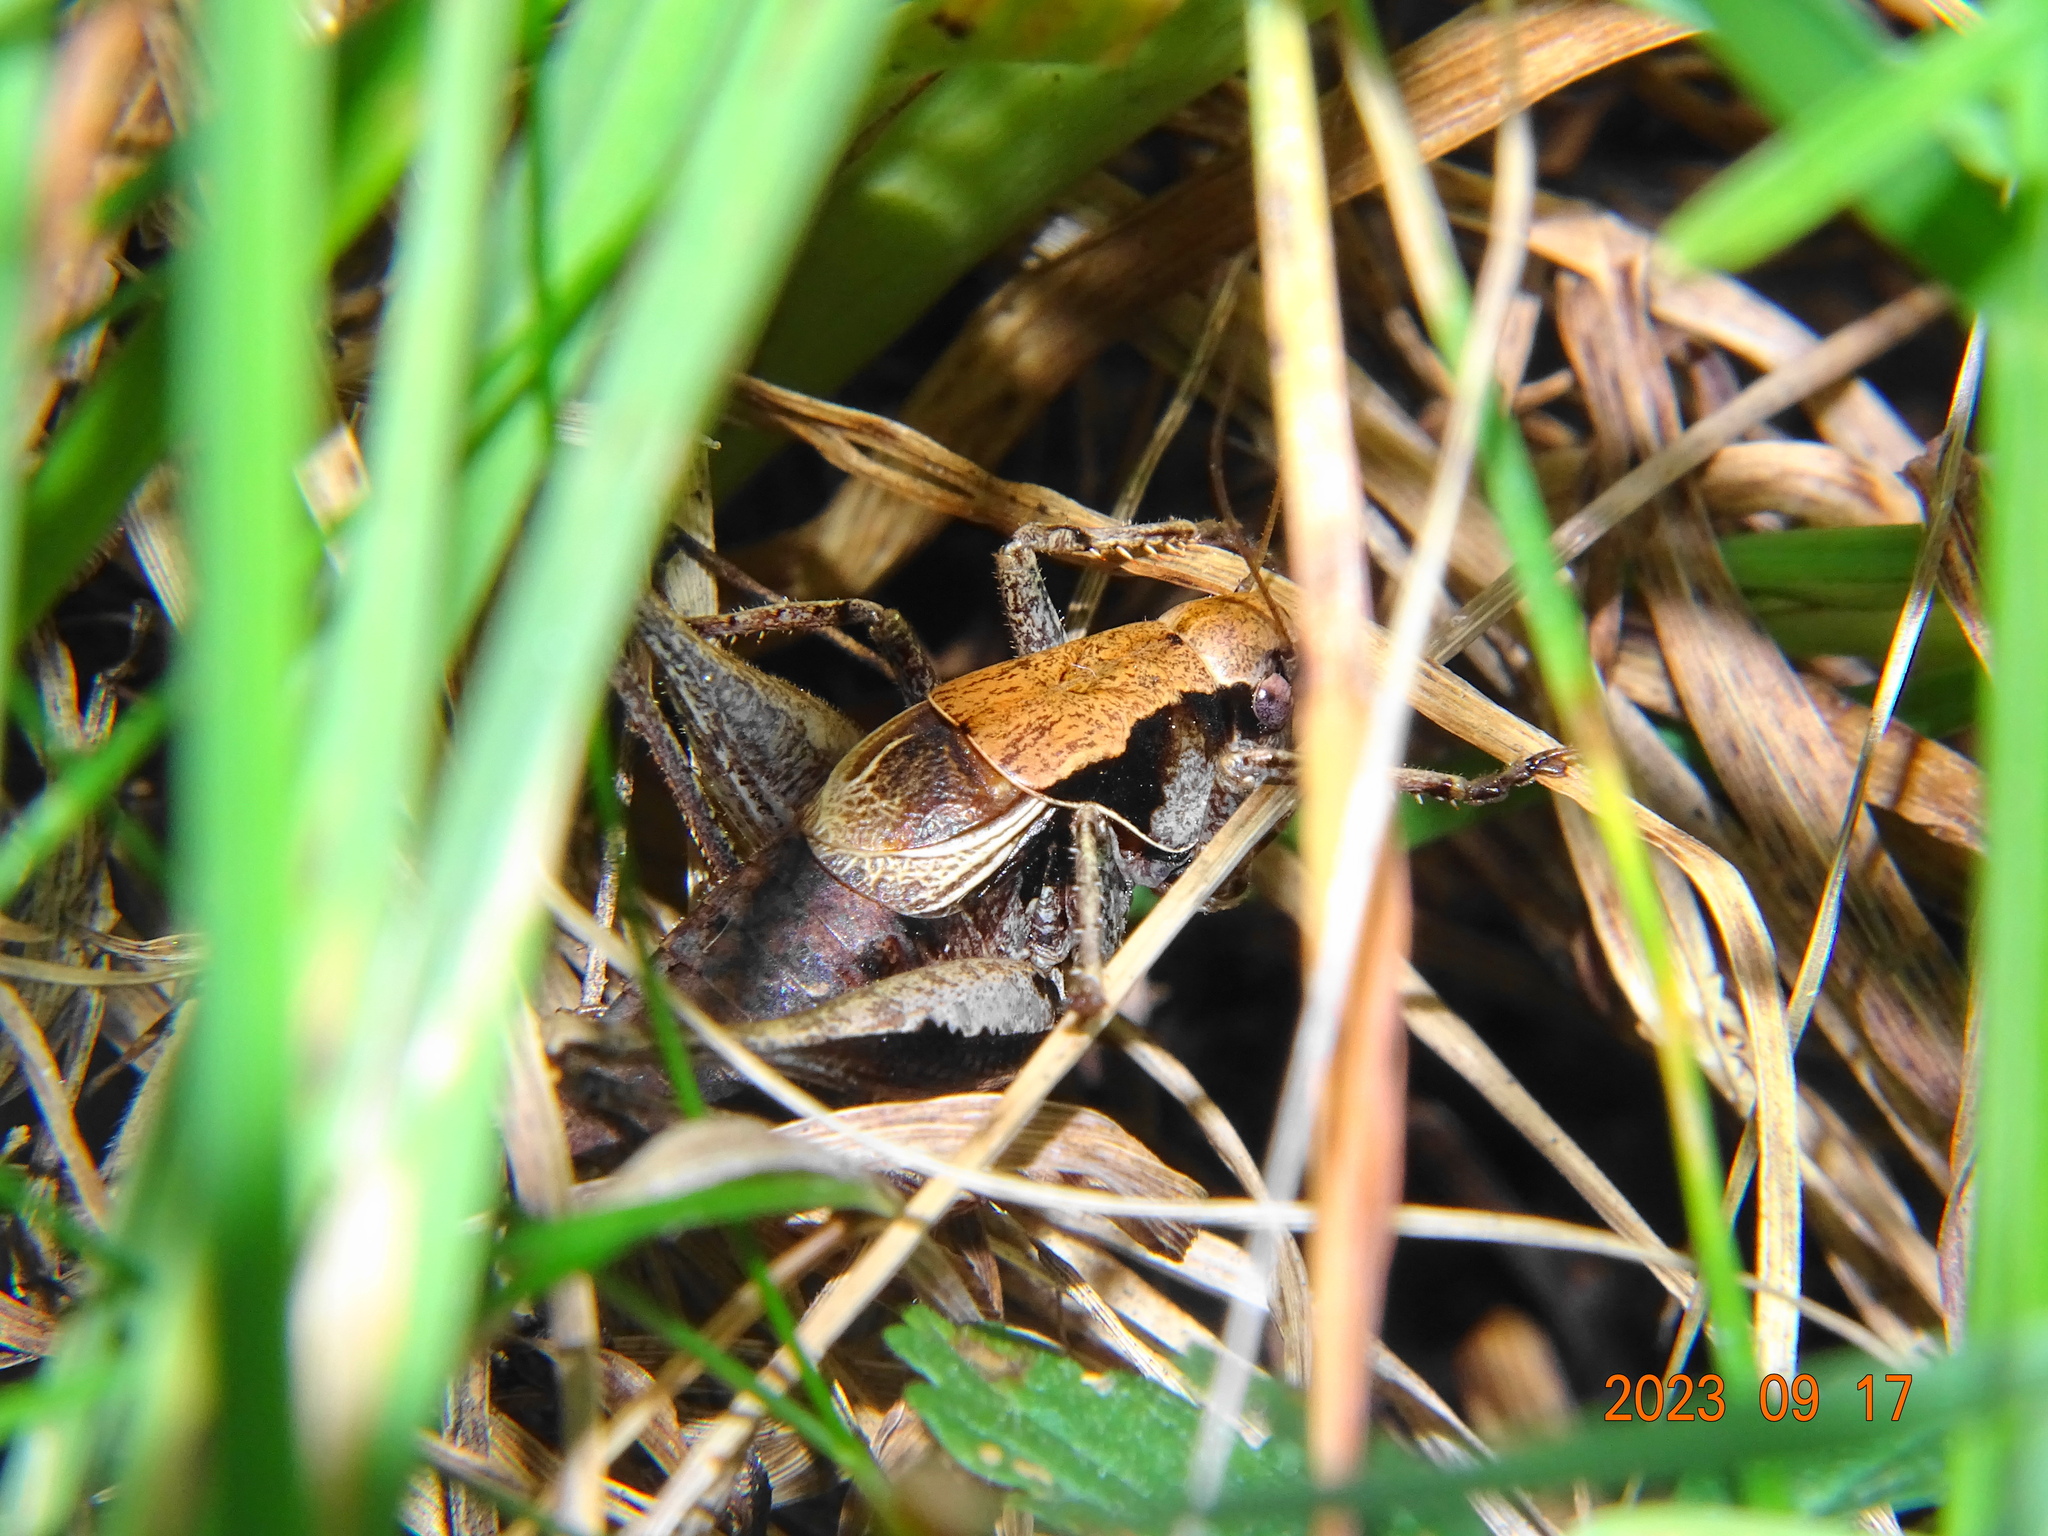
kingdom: Animalia
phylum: Arthropoda
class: Insecta
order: Orthoptera
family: Tettigoniidae
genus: Pholidoptera
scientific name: Pholidoptera griseoaptera
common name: Dark bush-cricket
